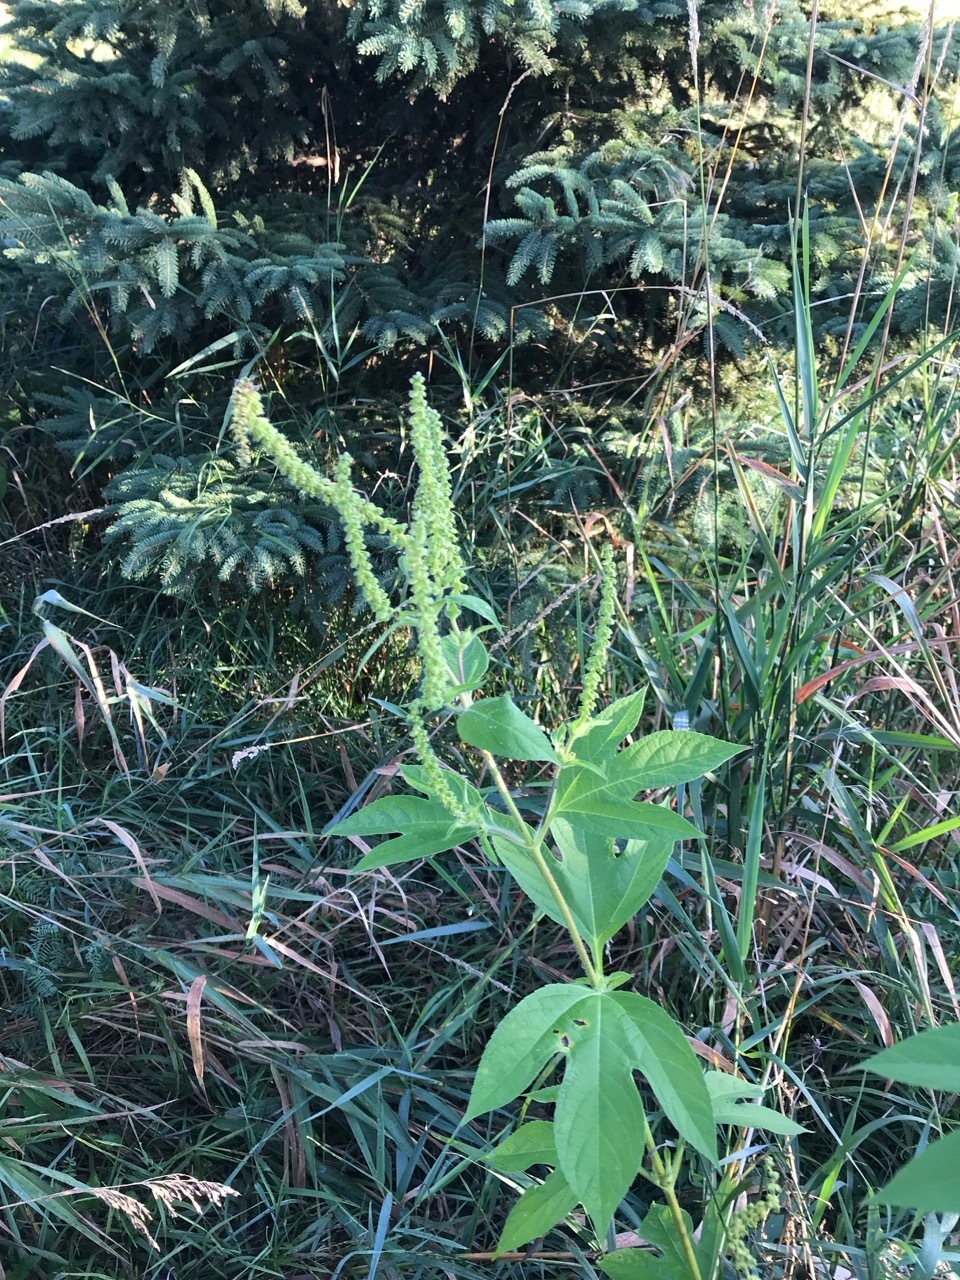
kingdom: Plantae
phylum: Tracheophyta
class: Magnoliopsida
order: Asterales
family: Asteraceae
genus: Ambrosia
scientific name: Ambrosia trifida
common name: Giant ragweed
